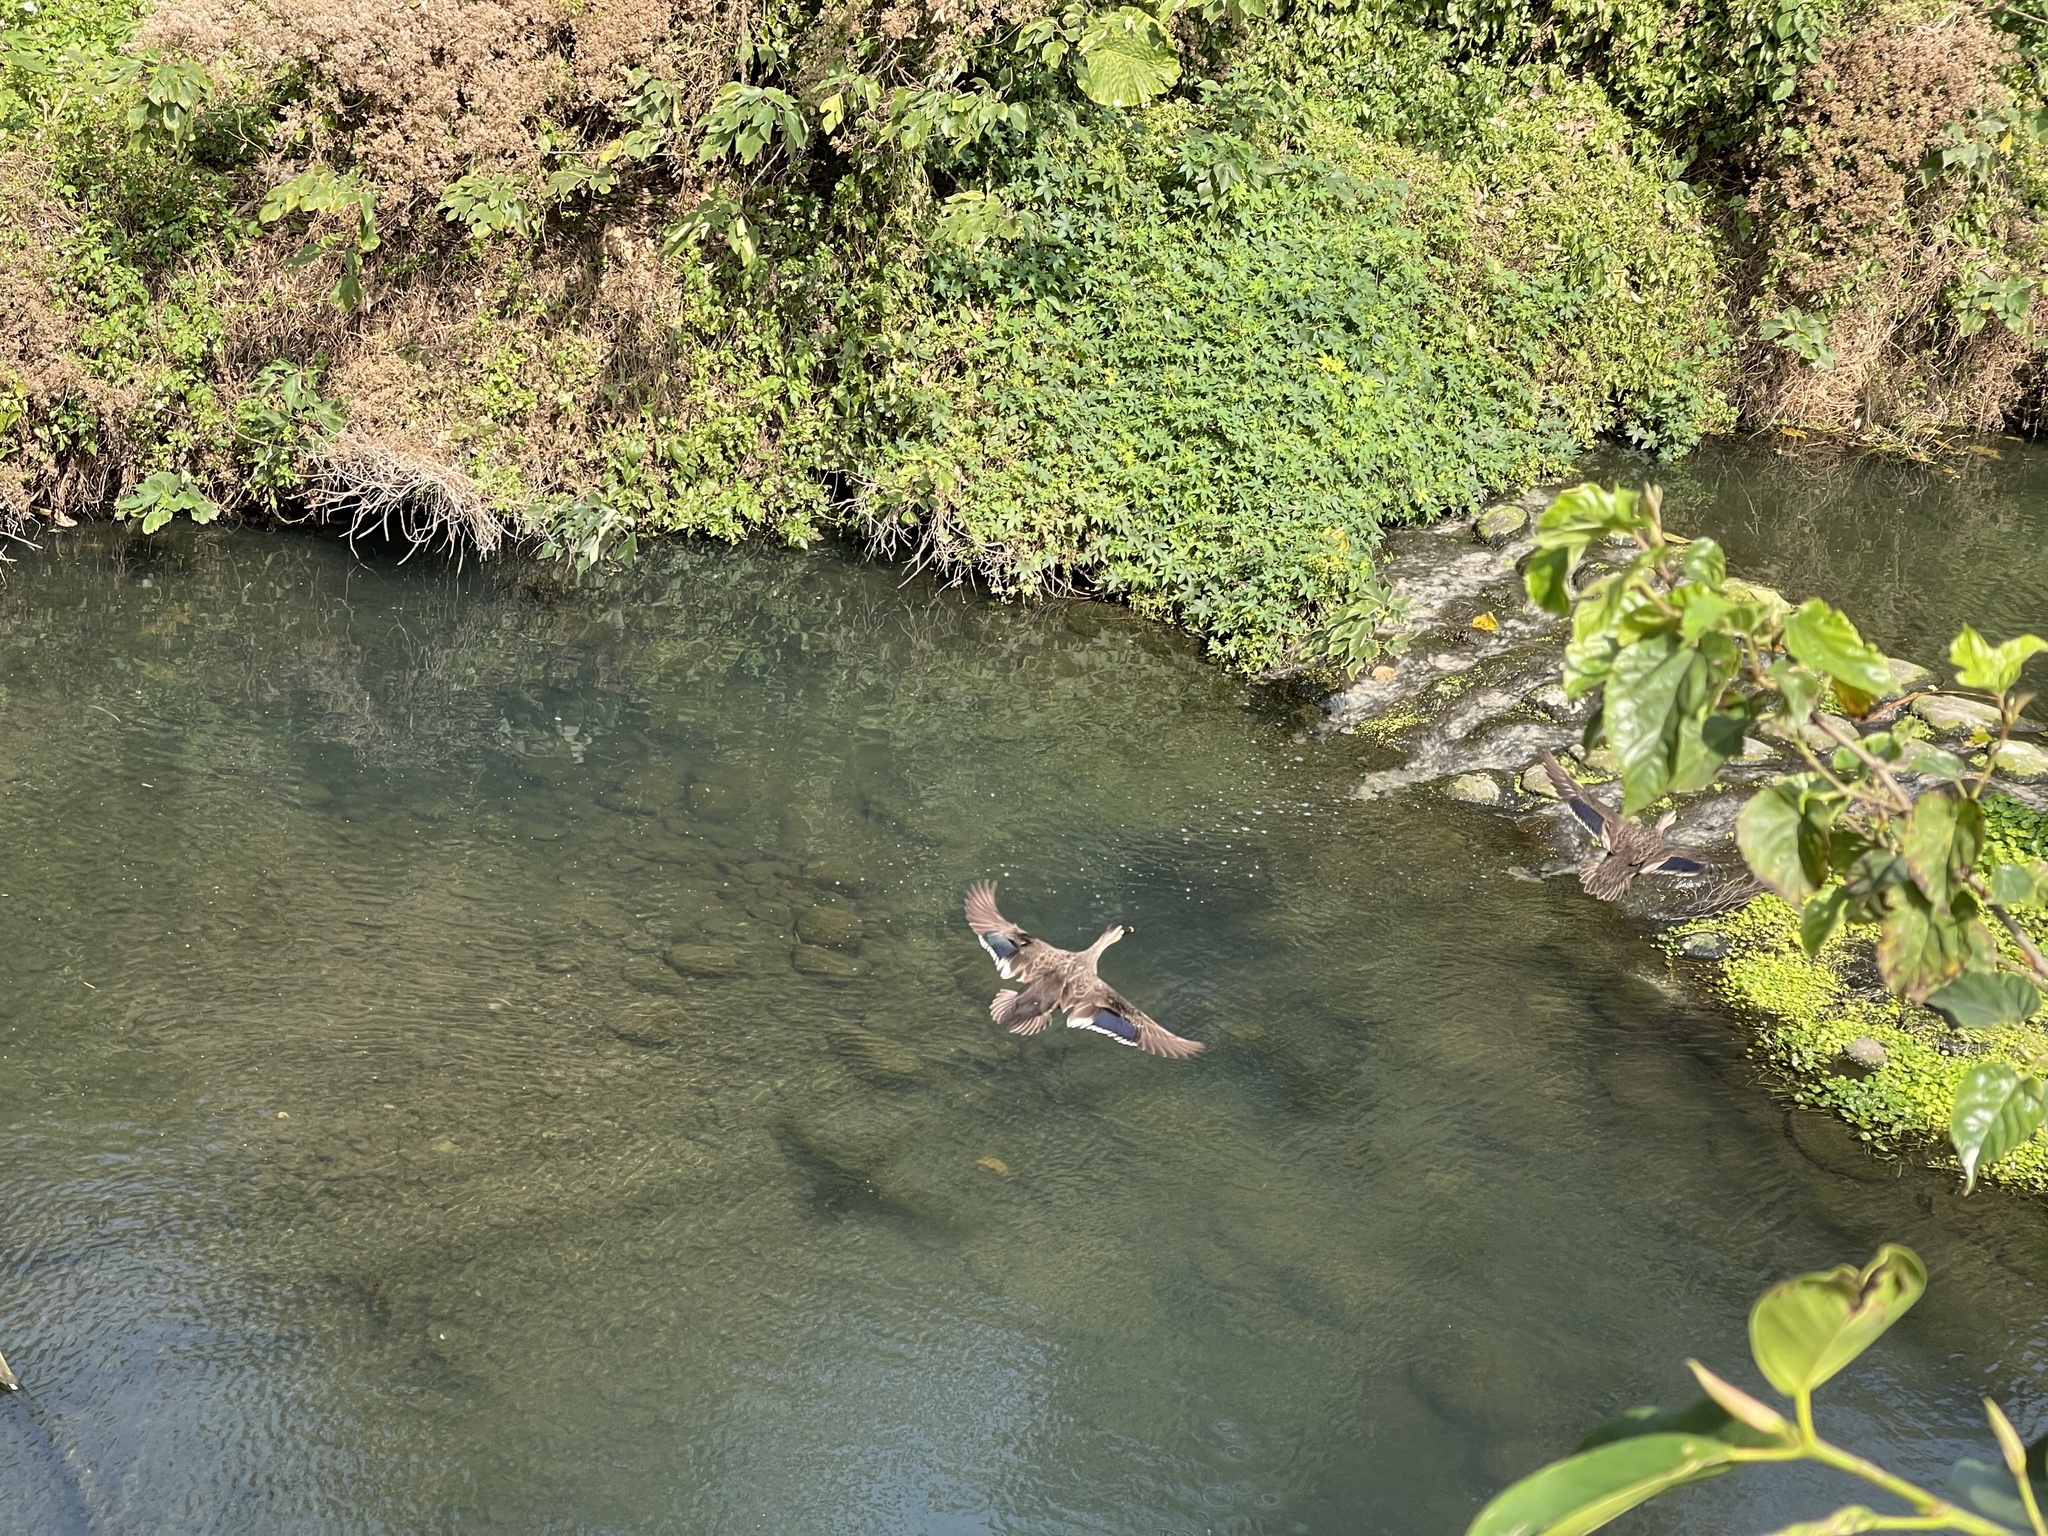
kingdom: Animalia
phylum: Chordata
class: Aves
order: Anseriformes
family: Anatidae
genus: Anas
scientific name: Anas zonorhyncha
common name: Eastern spot-billed duck
